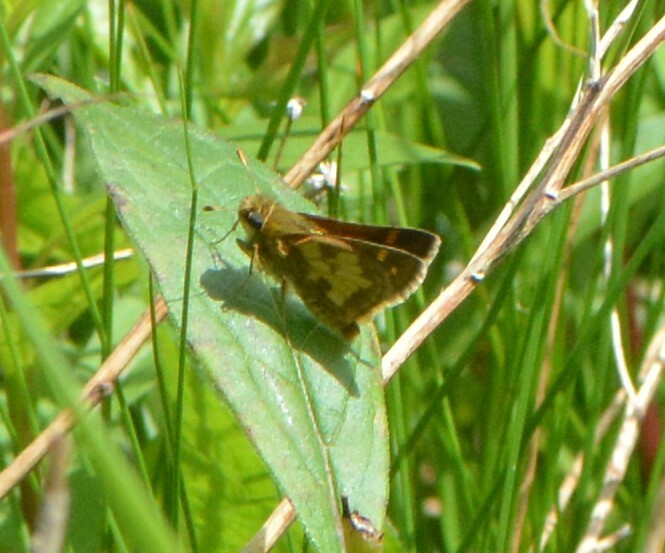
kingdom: Animalia
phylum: Arthropoda
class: Insecta
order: Lepidoptera
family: Hesperiidae
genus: Polites
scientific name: Polites coras
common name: Peck's skipper
